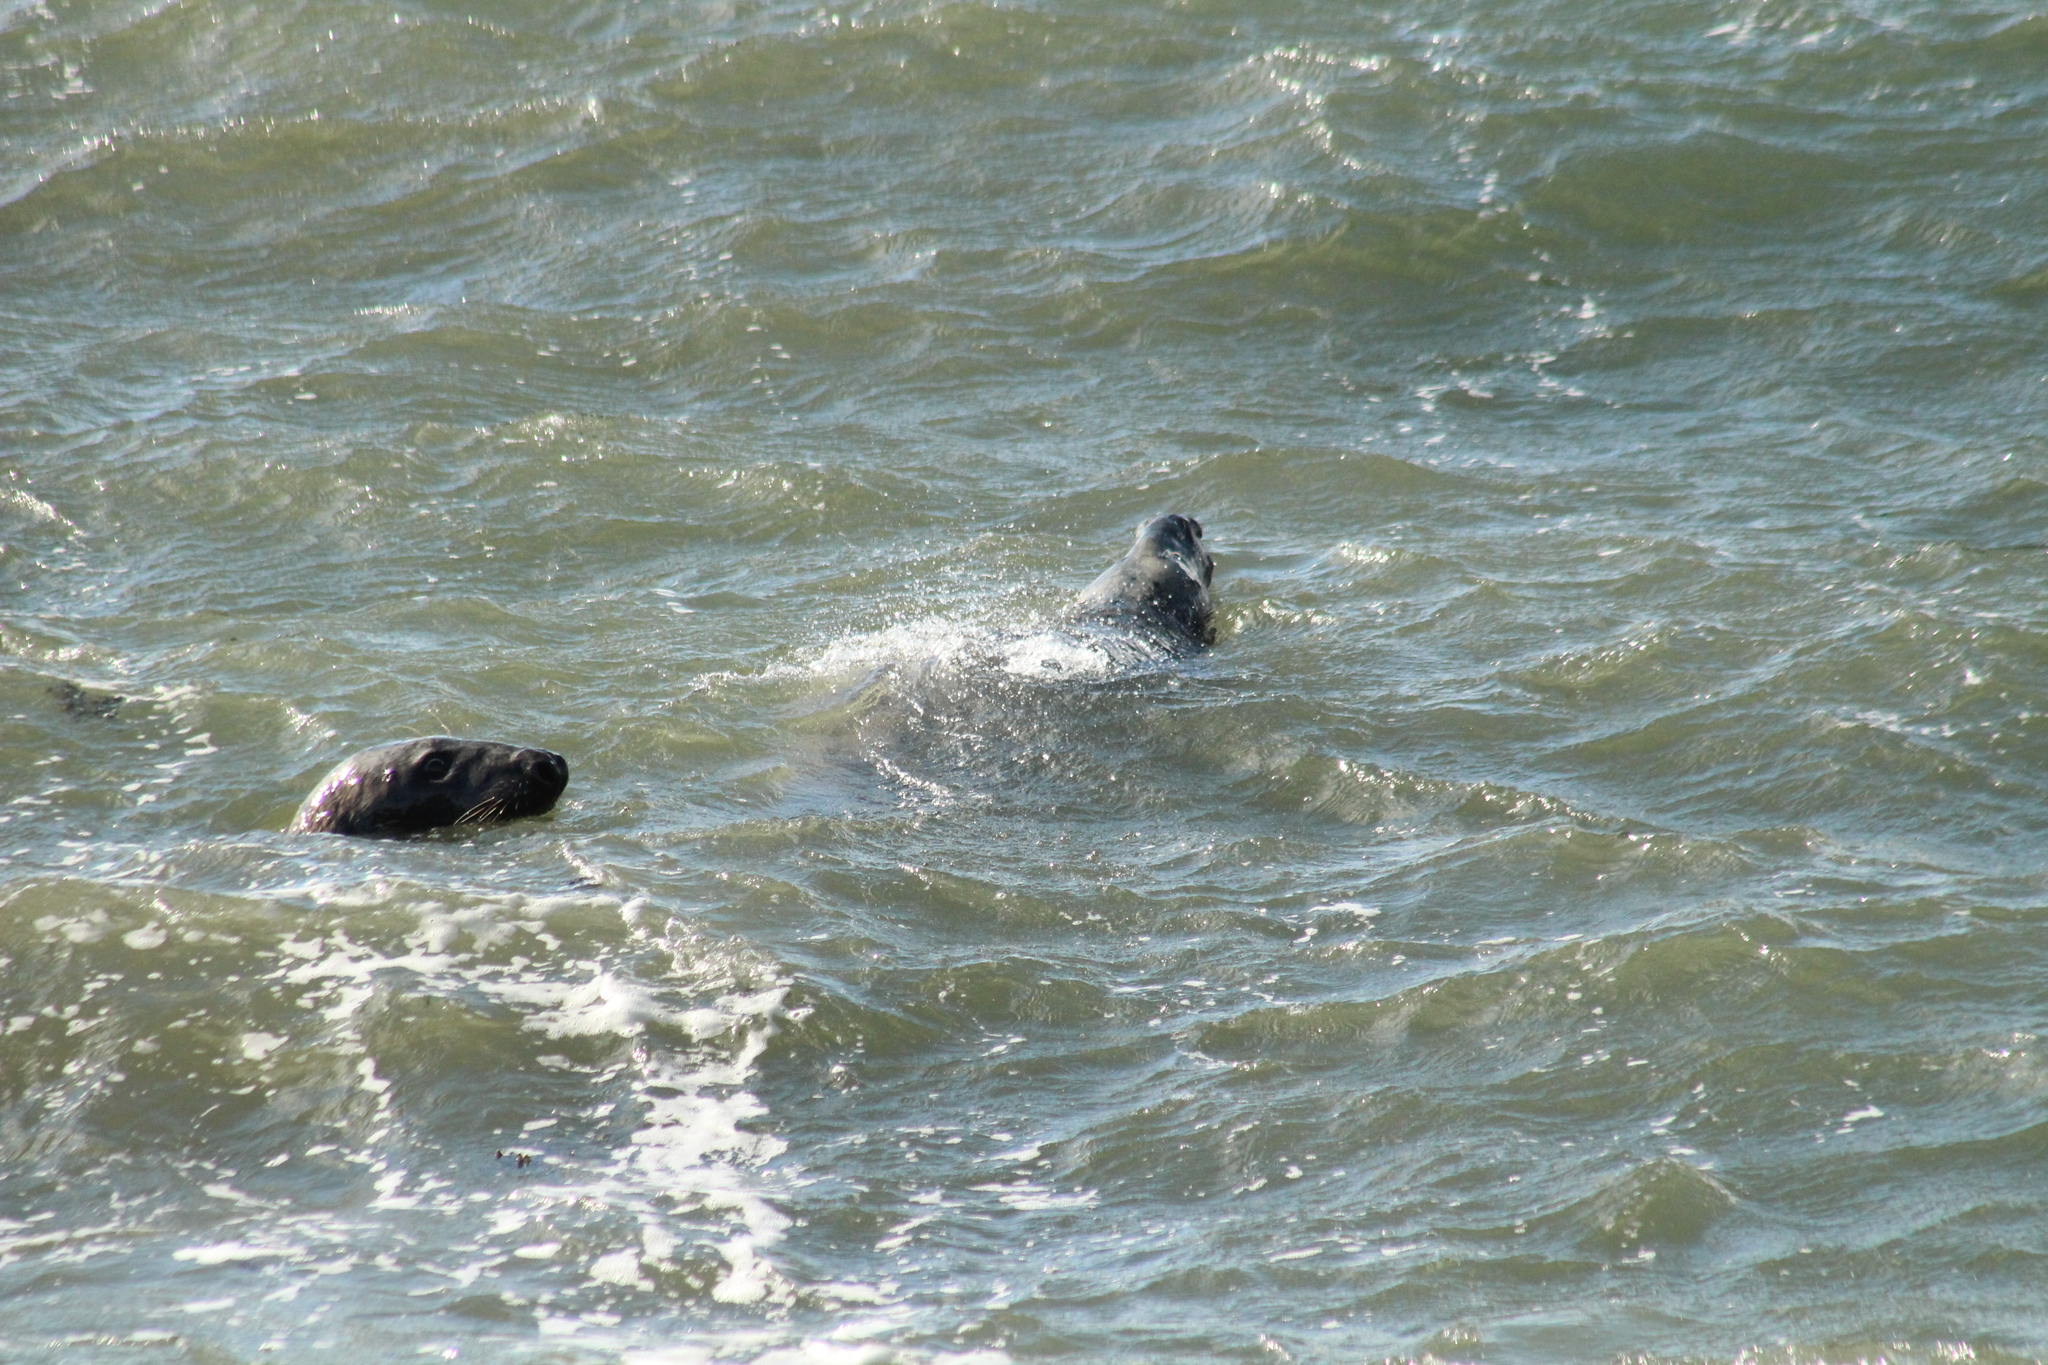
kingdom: Animalia
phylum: Chordata
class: Mammalia
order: Carnivora
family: Phocidae
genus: Halichoerus
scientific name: Halichoerus grypus
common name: Grey seal
